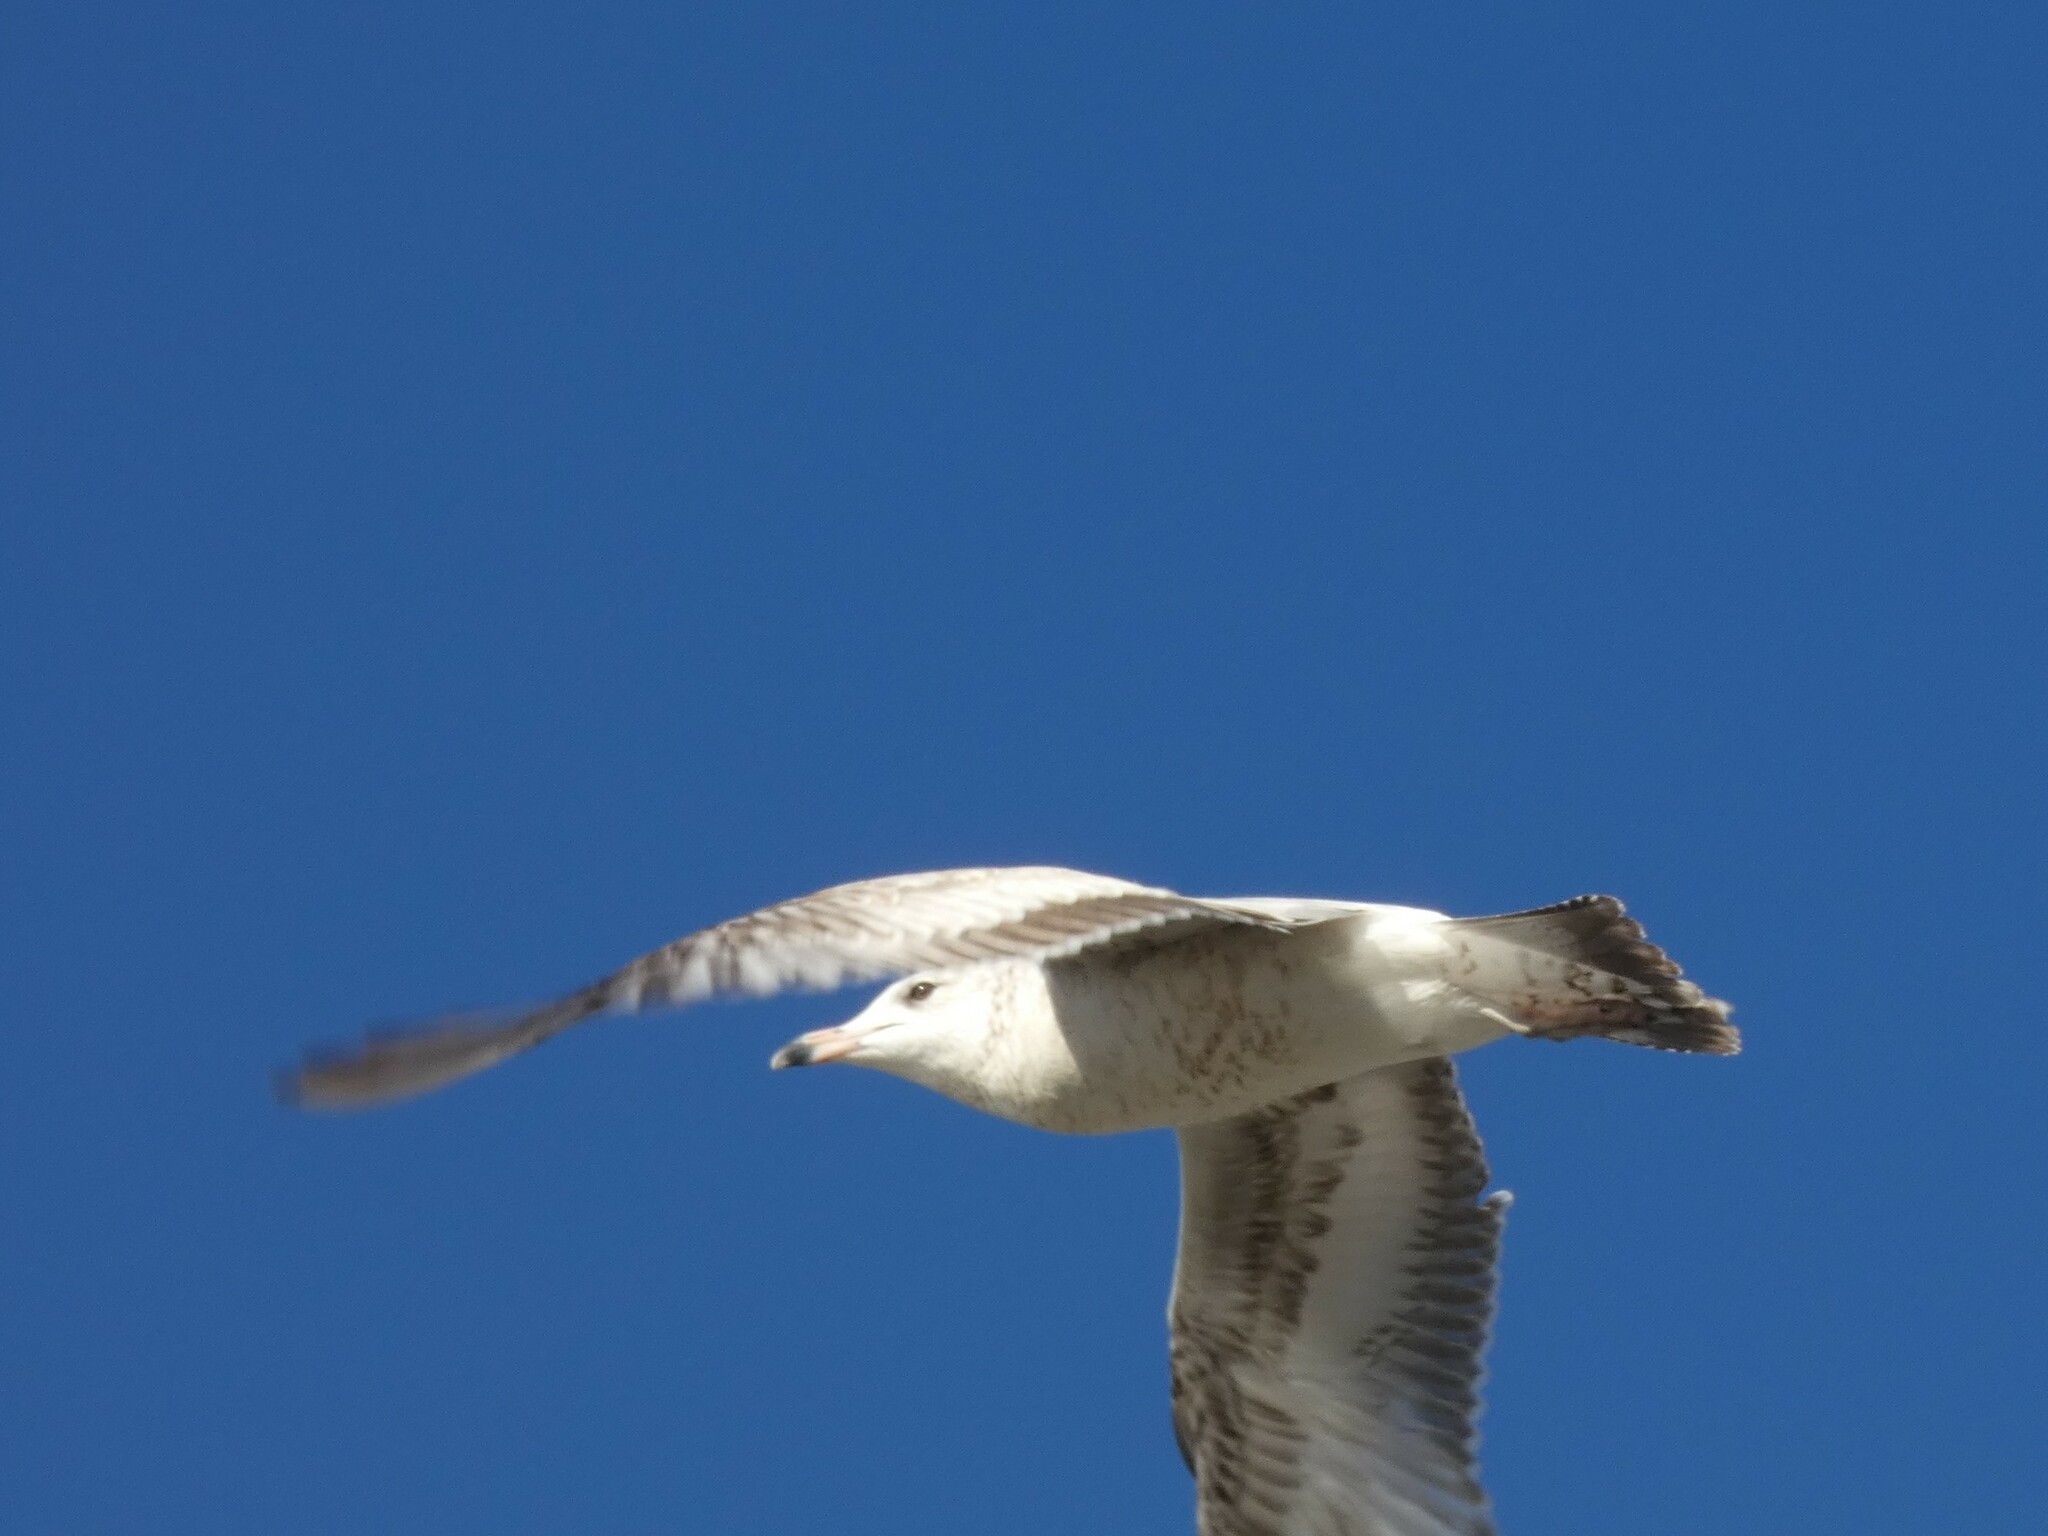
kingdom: Animalia
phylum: Chordata
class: Aves
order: Charadriiformes
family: Laridae
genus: Larus
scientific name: Larus delawarensis
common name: Ring-billed gull
